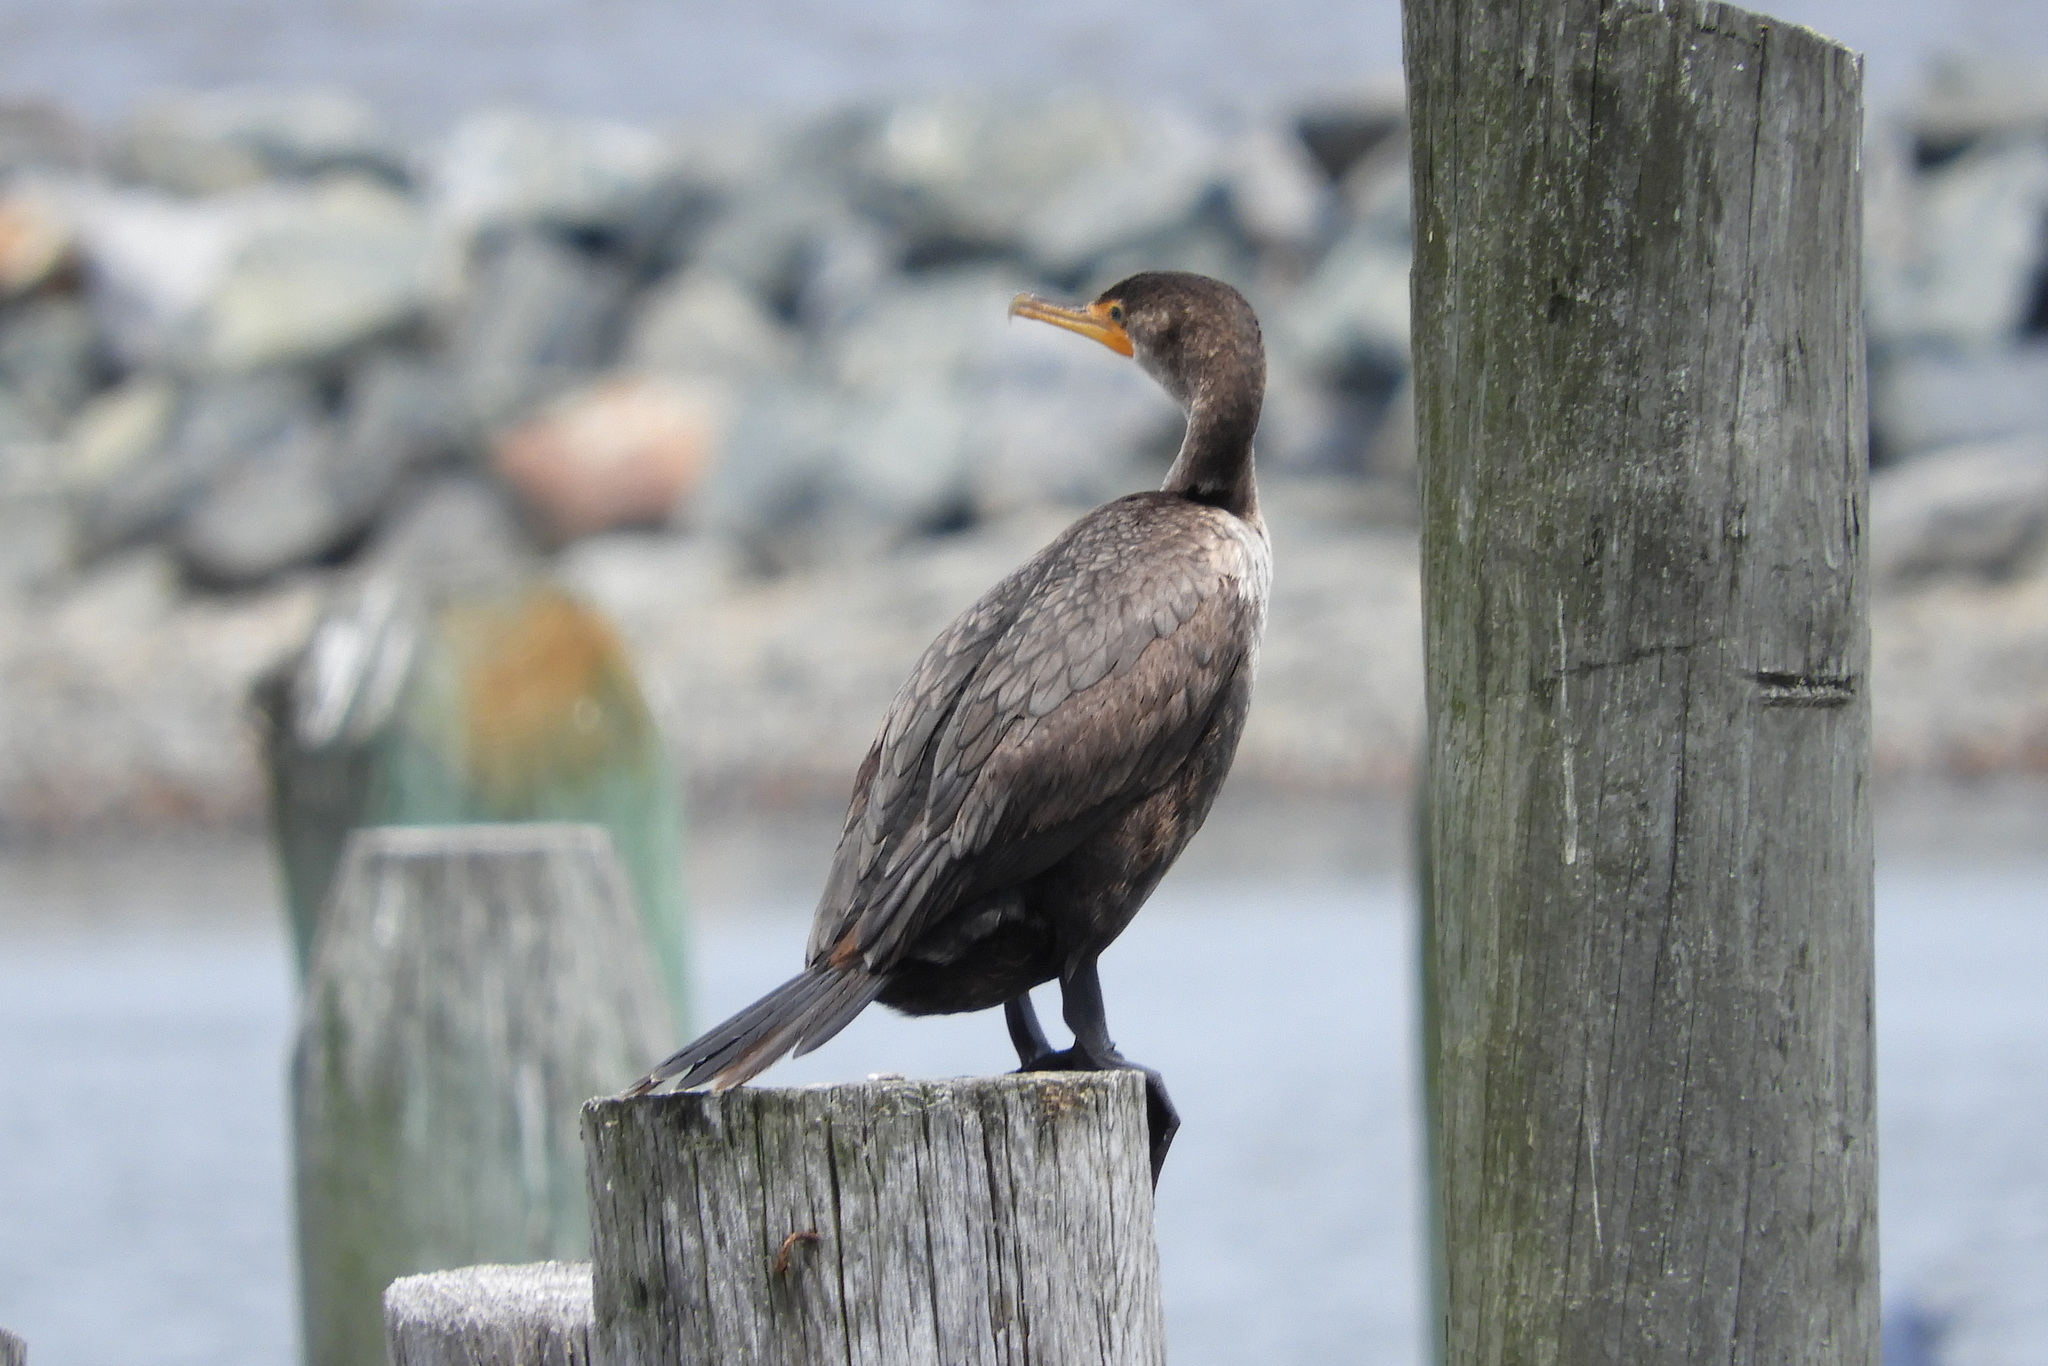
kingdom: Animalia
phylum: Chordata
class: Aves
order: Suliformes
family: Phalacrocoracidae
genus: Phalacrocorax
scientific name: Phalacrocorax auritus
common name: Double-crested cormorant
